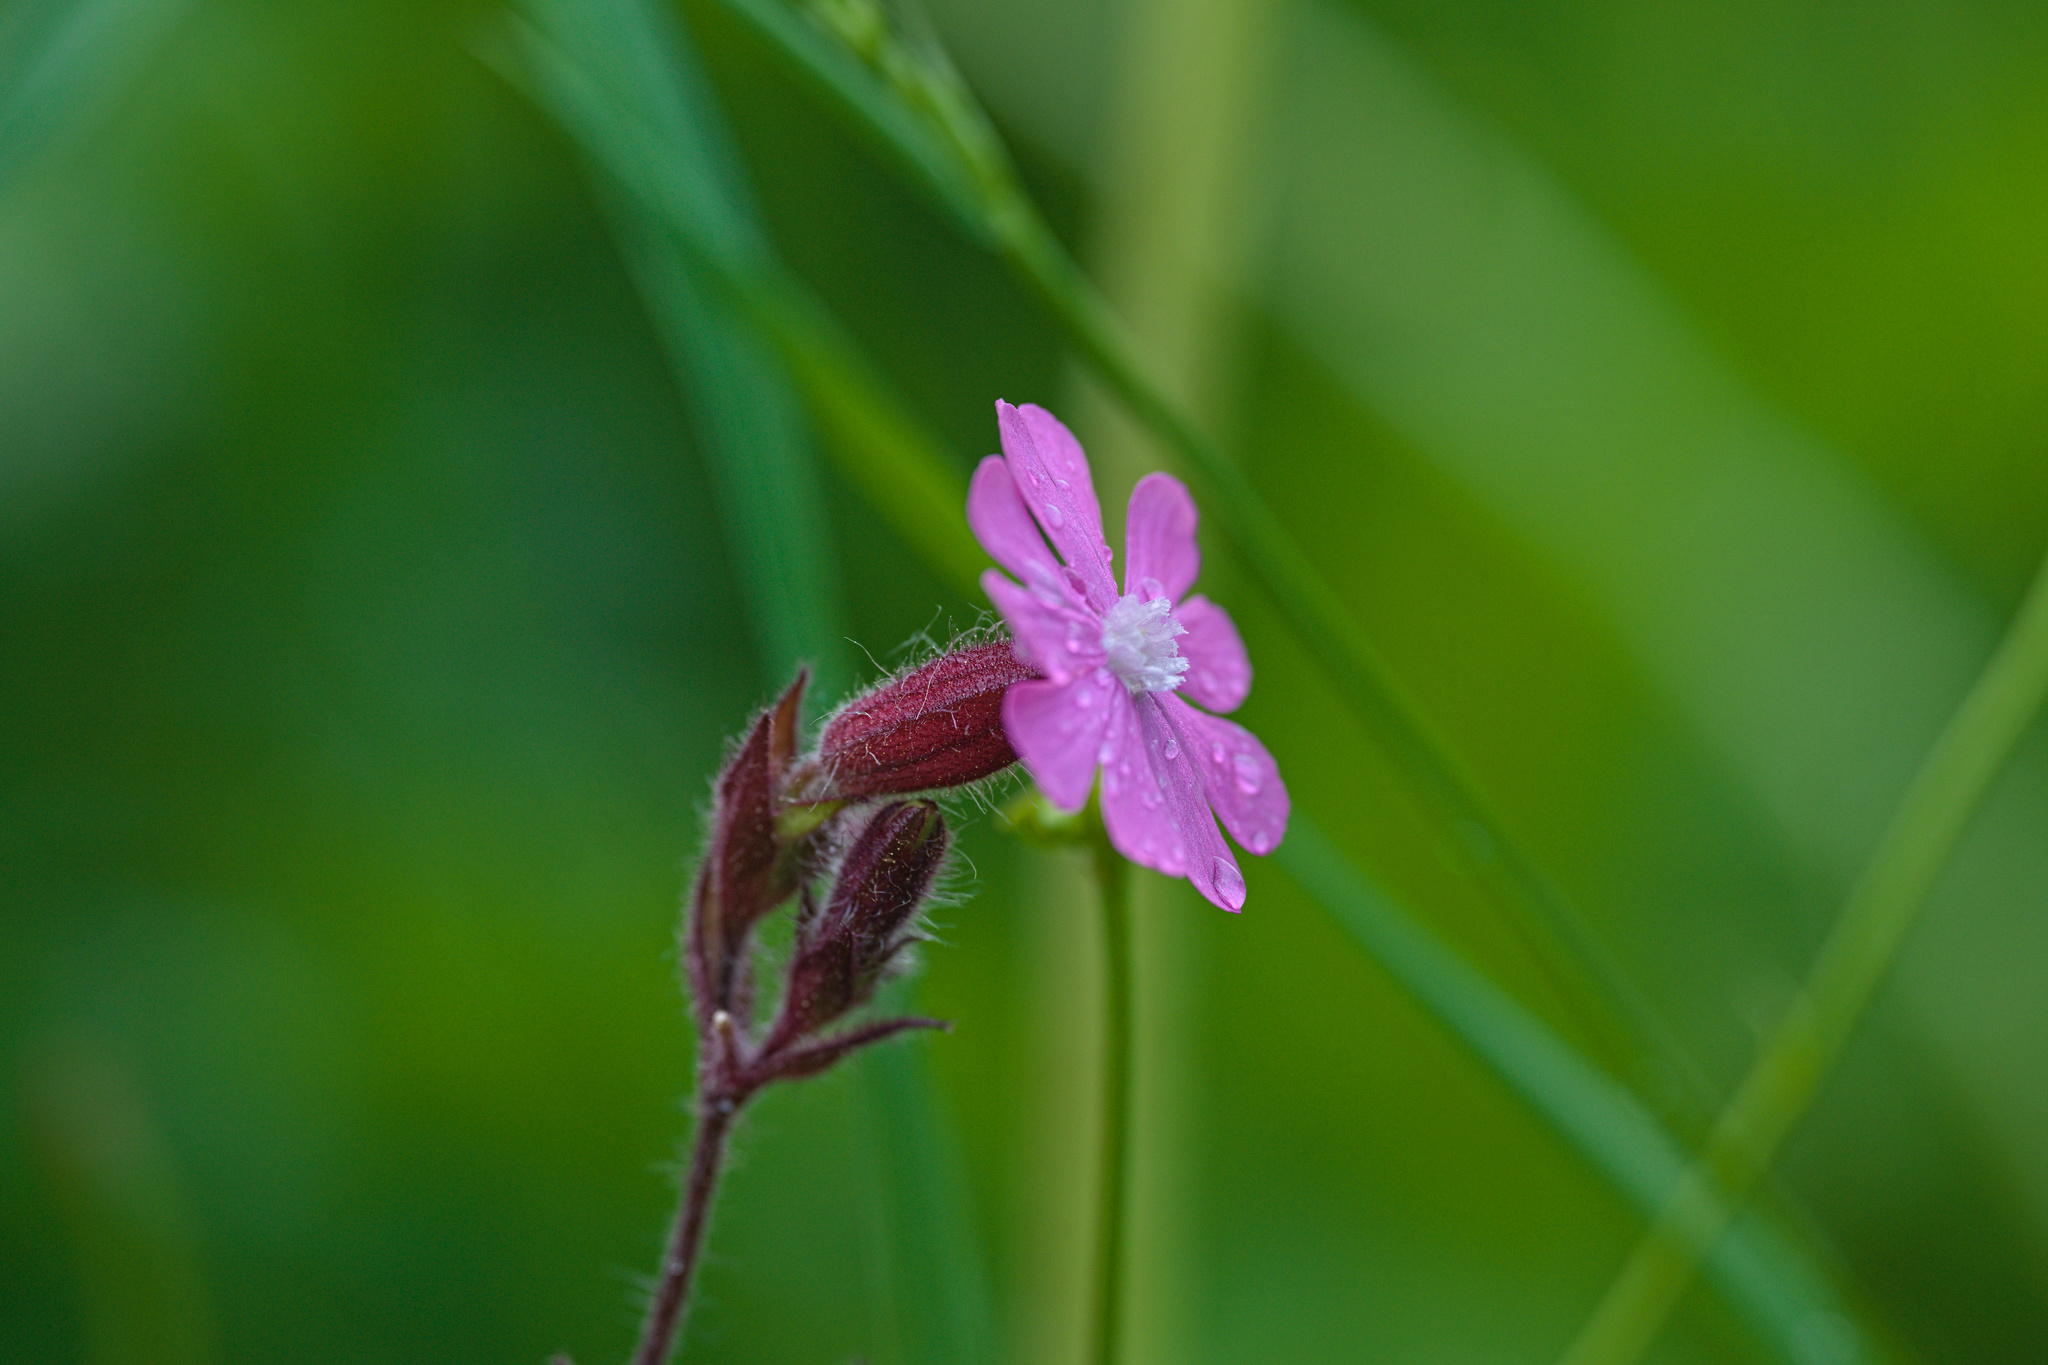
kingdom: Plantae
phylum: Tracheophyta
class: Magnoliopsida
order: Caryophyllales
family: Caryophyllaceae
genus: Silene
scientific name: Silene dioica
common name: Red campion
